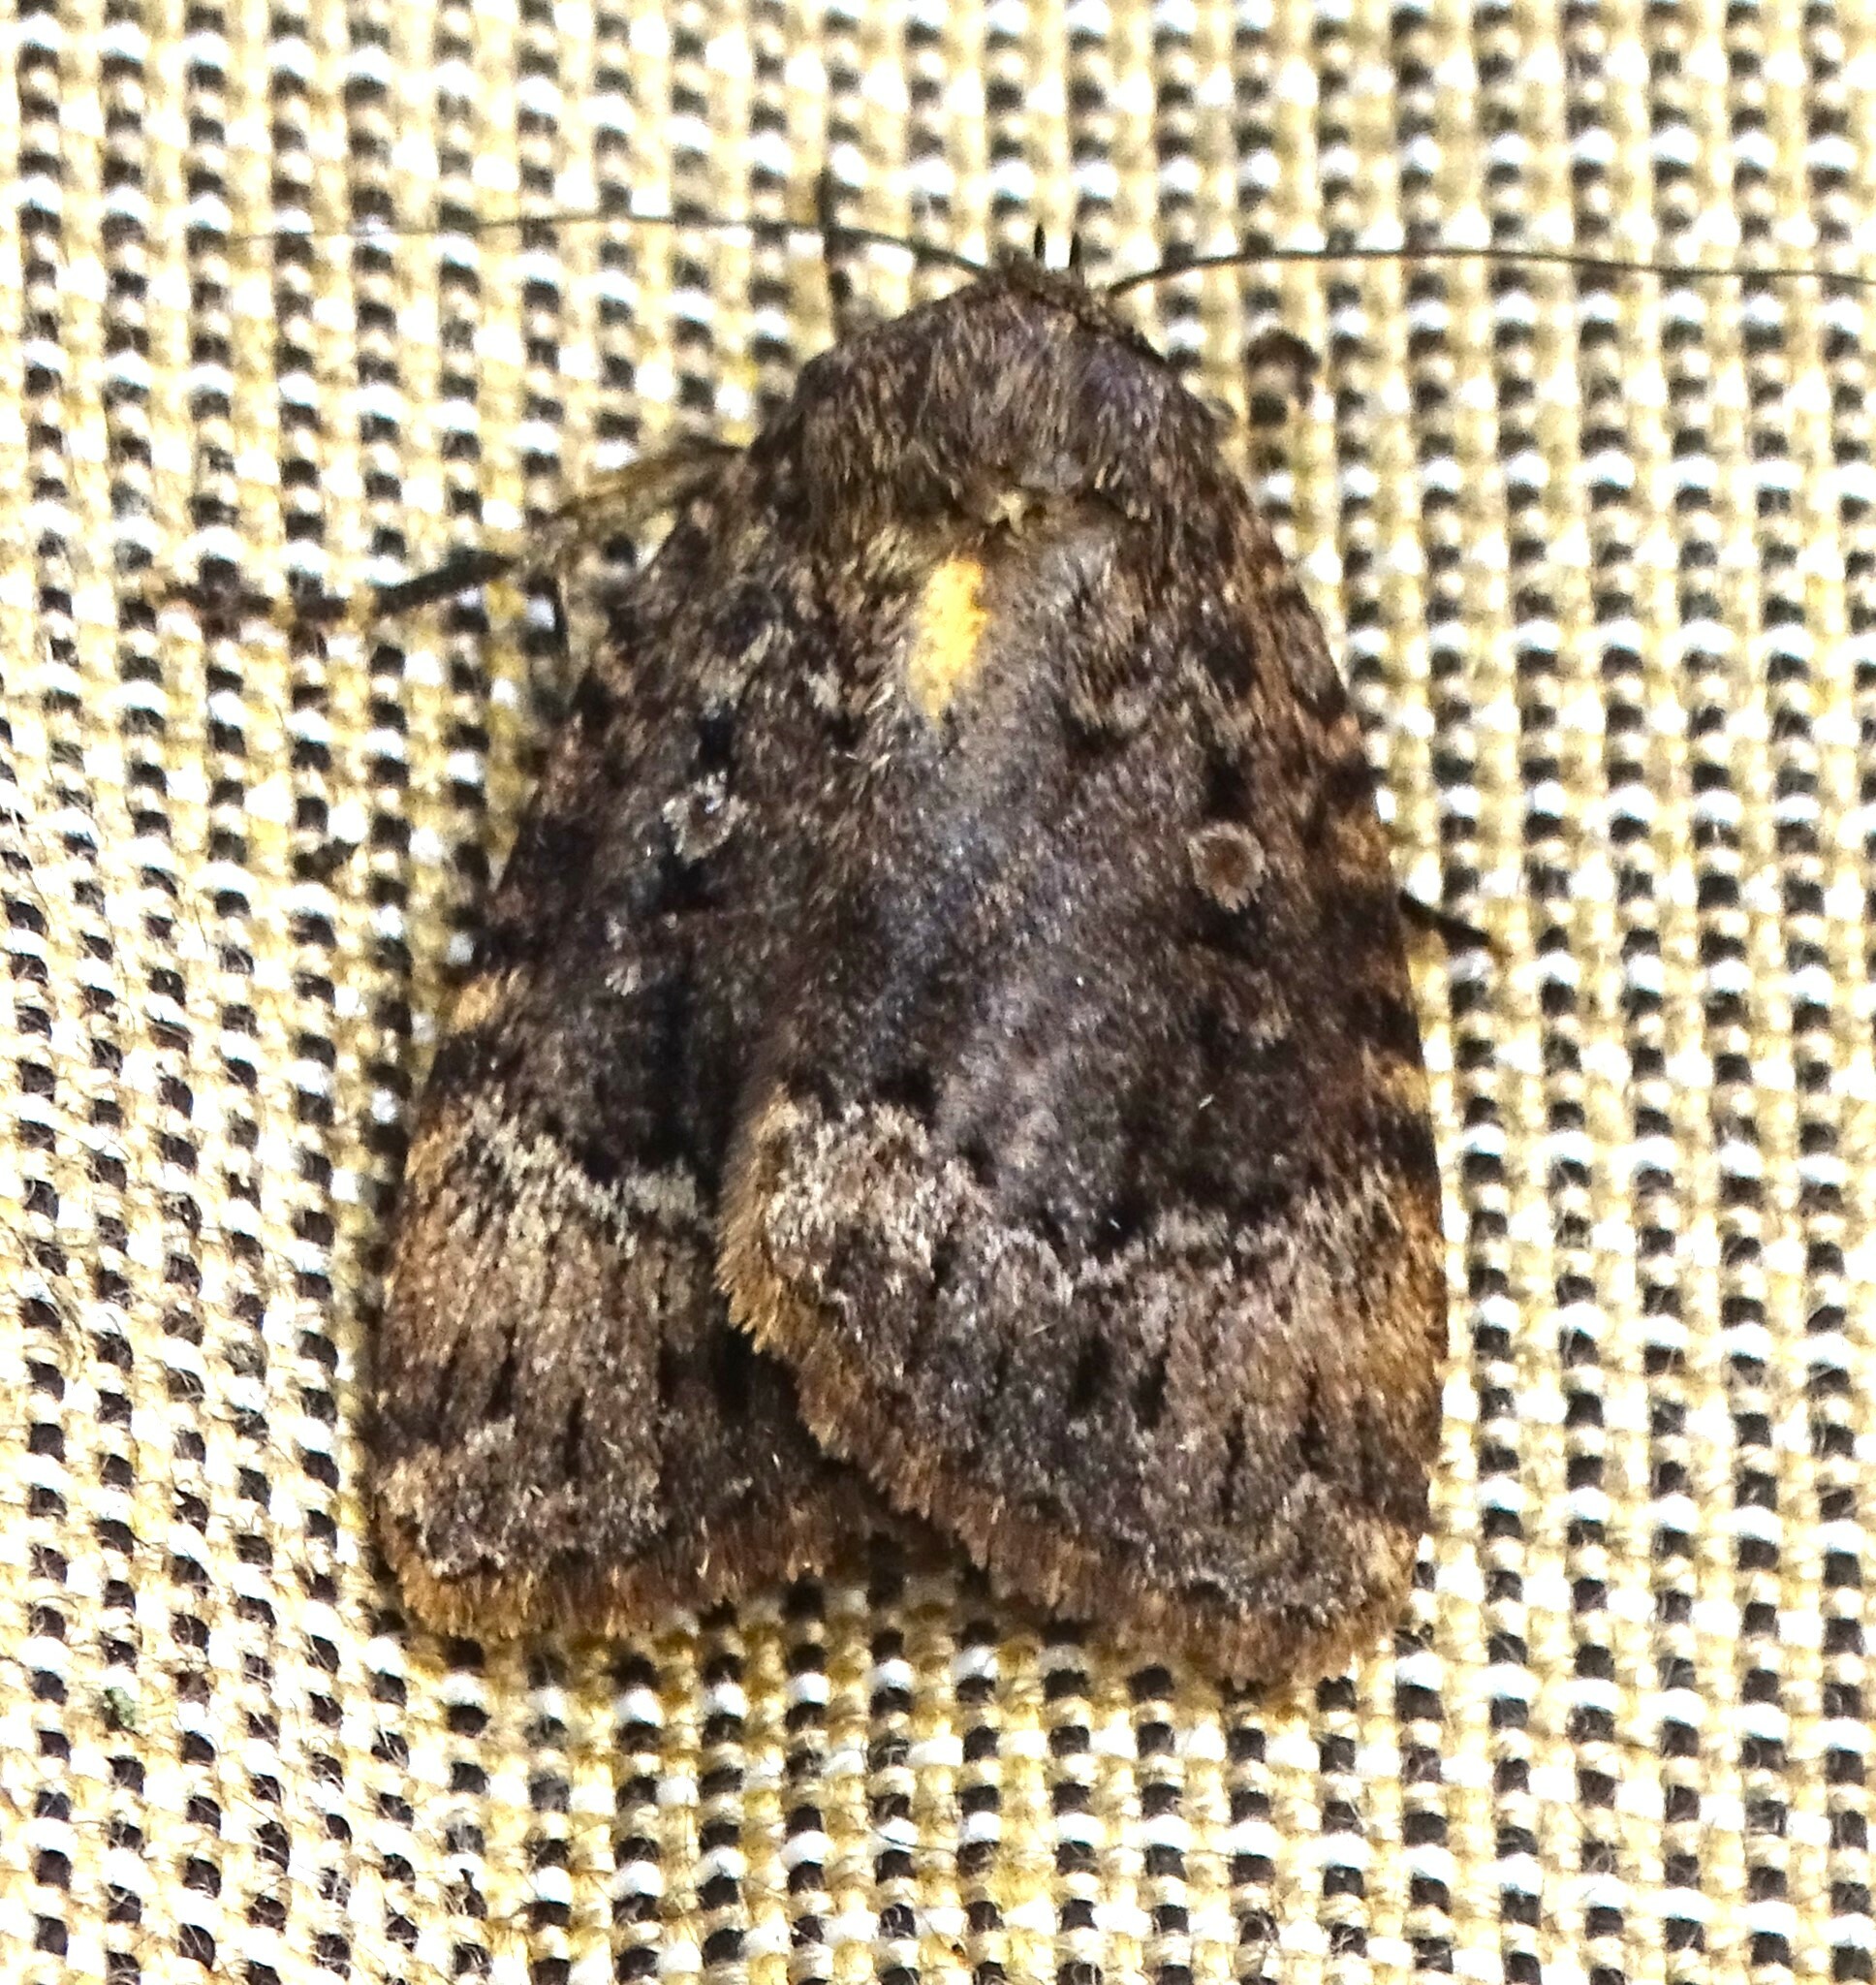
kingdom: Animalia
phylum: Arthropoda
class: Insecta
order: Lepidoptera
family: Noctuidae
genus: Amphipyra
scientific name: Amphipyra pyramidoides
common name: American copper underwing
